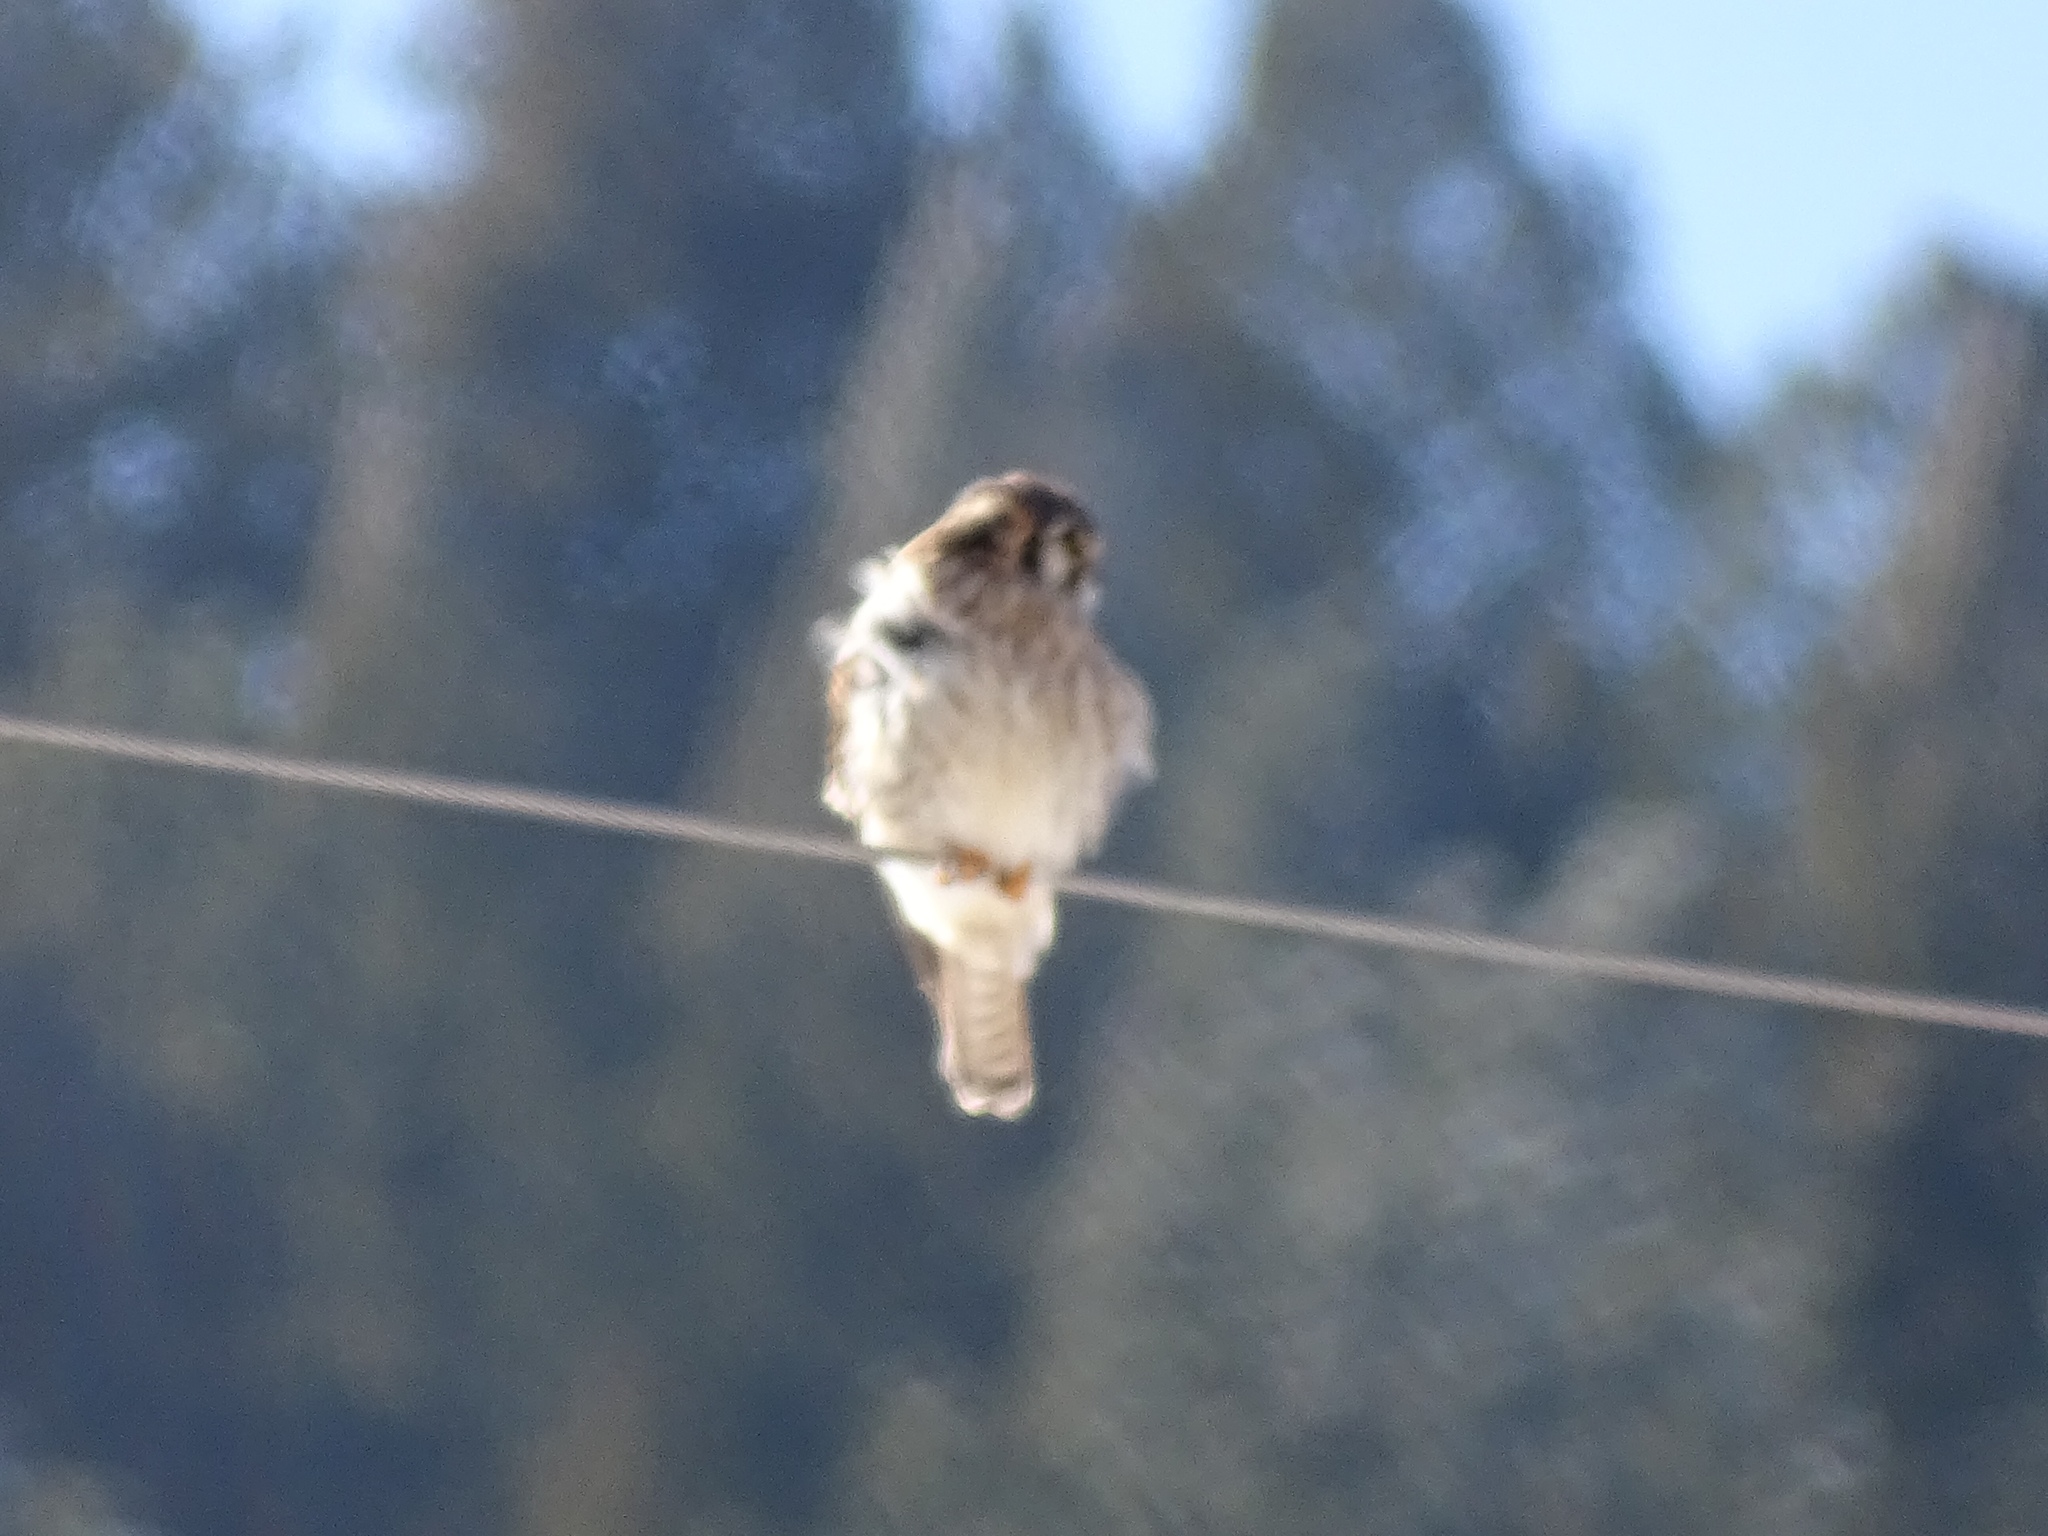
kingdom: Animalia
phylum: Chordata
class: Aves
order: Falconiformes
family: Falconidae
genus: Falco
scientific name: Falco sparverius
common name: American kestrel
